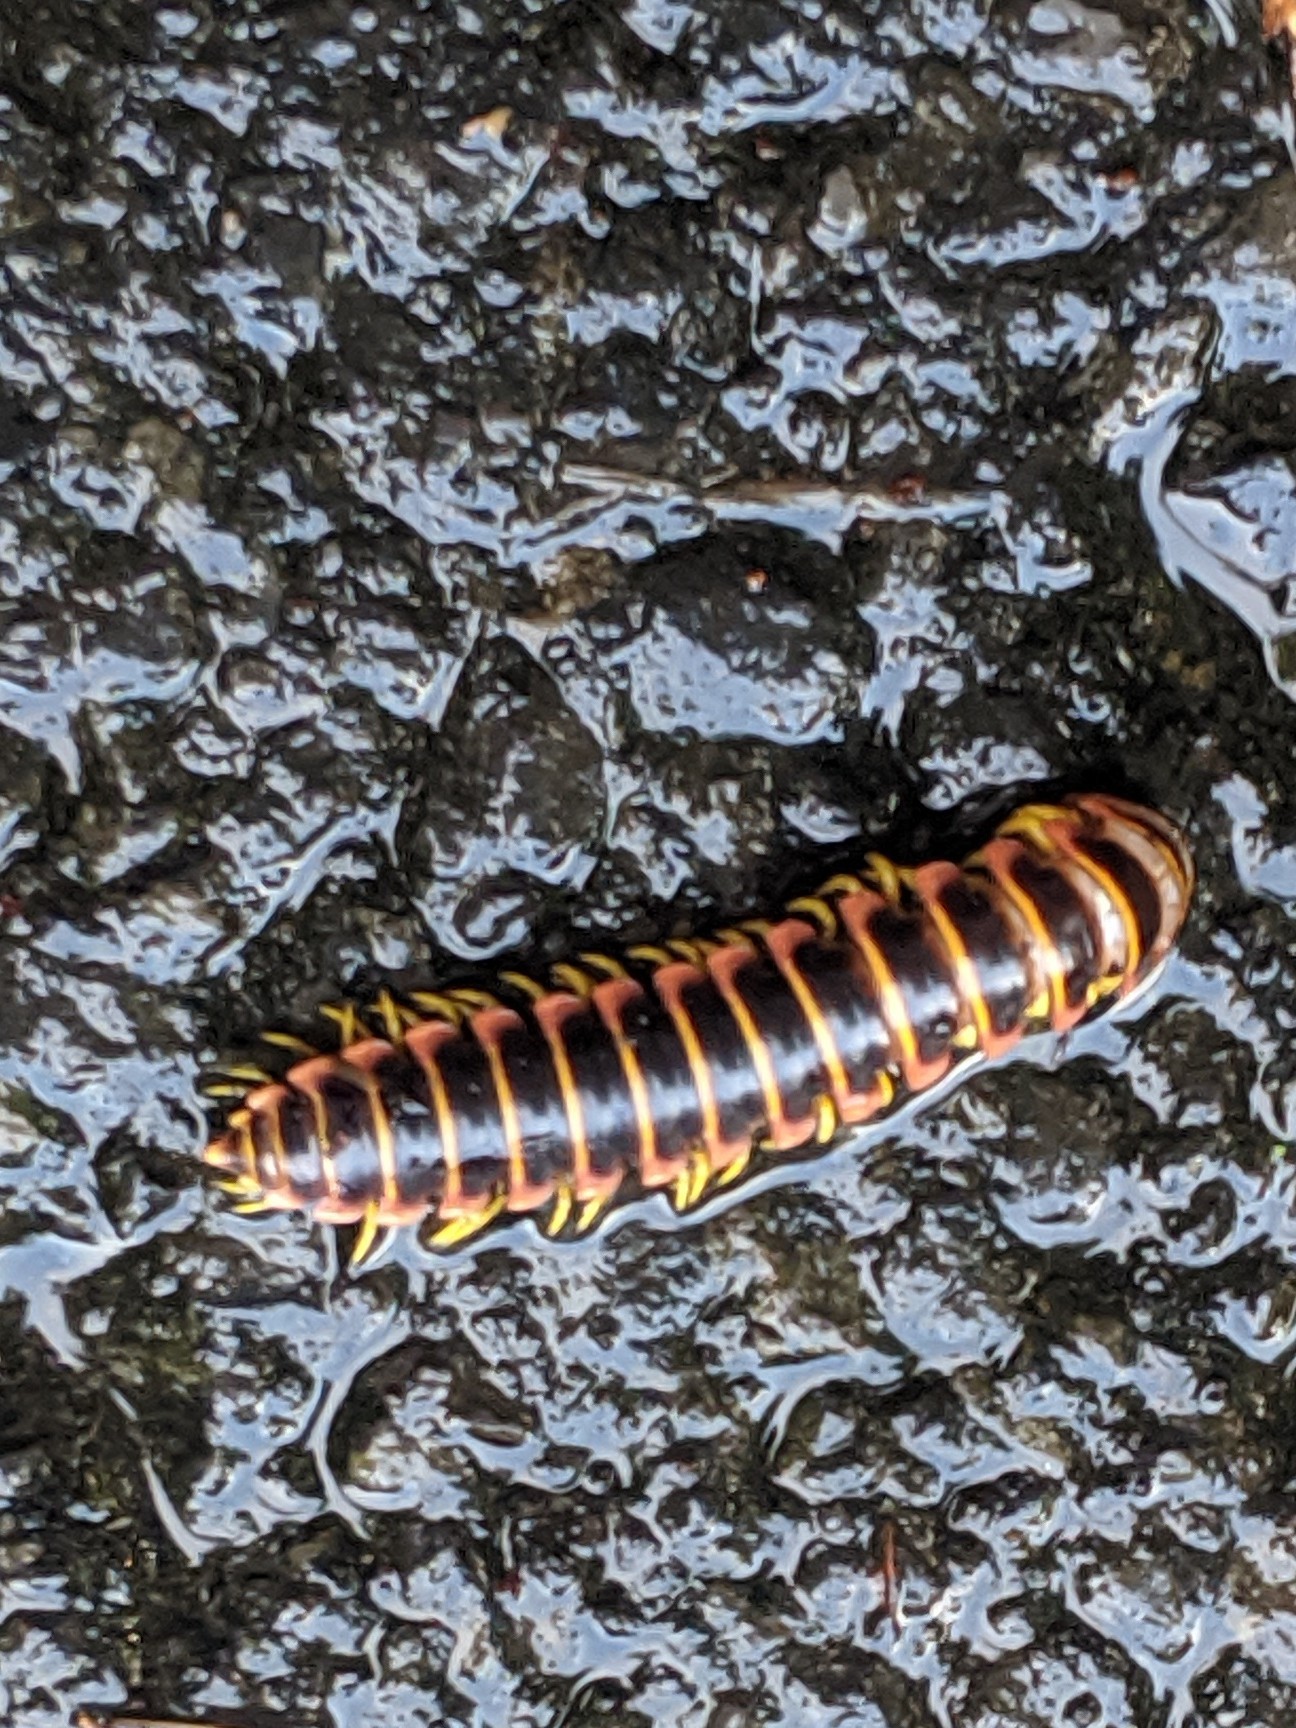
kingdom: Animalia
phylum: Arthropoda
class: Diplopoda
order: Polydesmida
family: Xystodesmidae
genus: Apheloria
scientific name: Apheloria virginiensis
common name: Black-and-gold flat millipede
